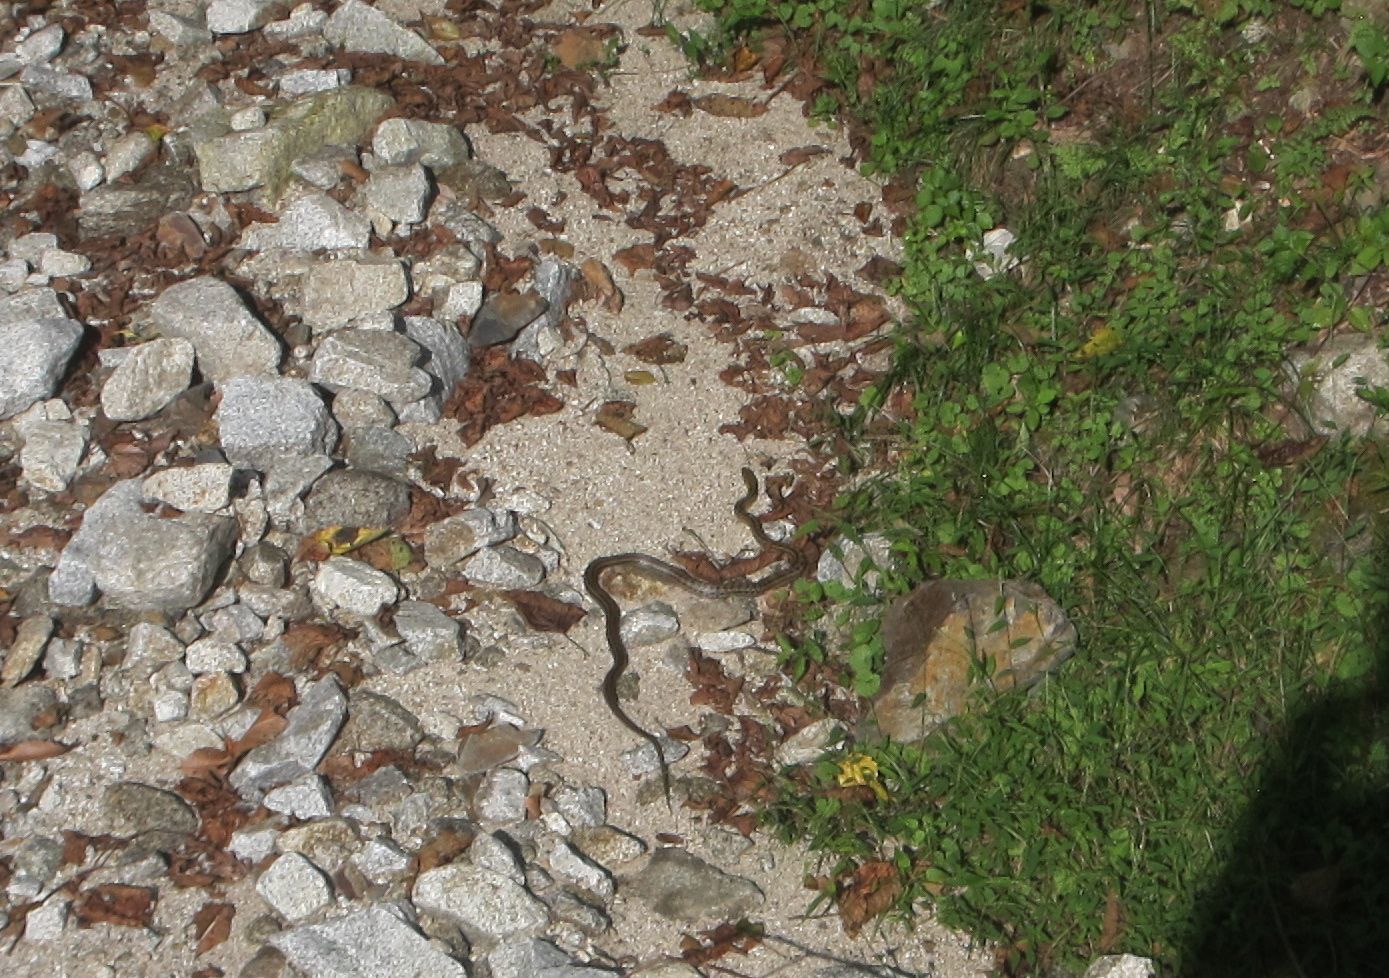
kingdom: Animalia
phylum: Chordata
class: Squamata
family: Colubridae
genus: Elaphe
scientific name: Elaphe quadrivirgata
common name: Japanese four-lined ratsnake
